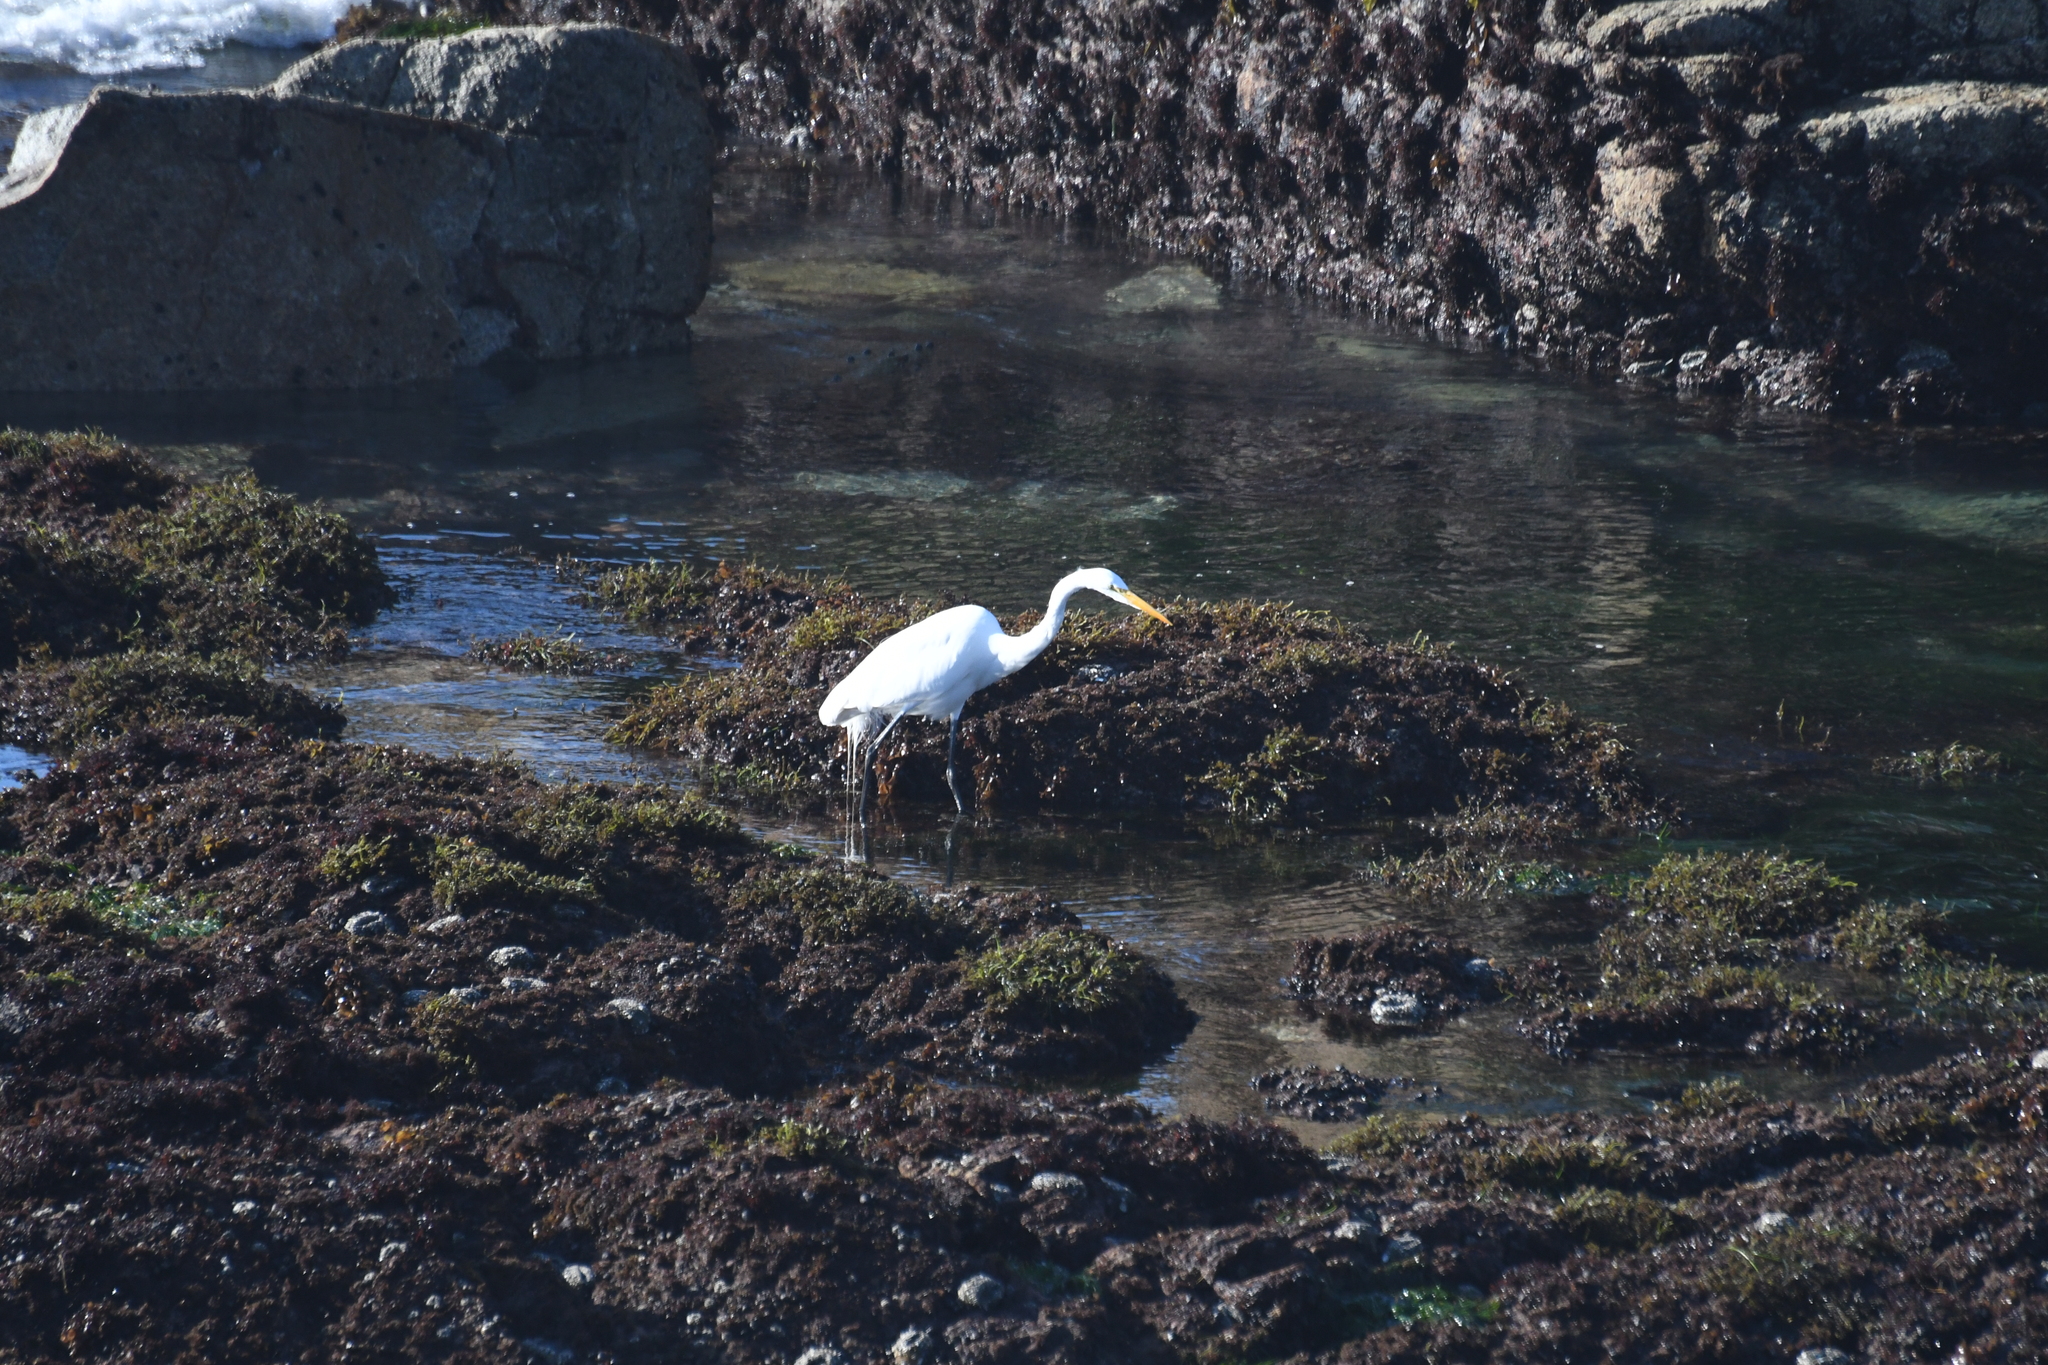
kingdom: Animalia
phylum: Chordata
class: Aves
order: Pelecaniformes
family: Ardeidae
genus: Ardea
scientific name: Ardea alba
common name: Great egret
